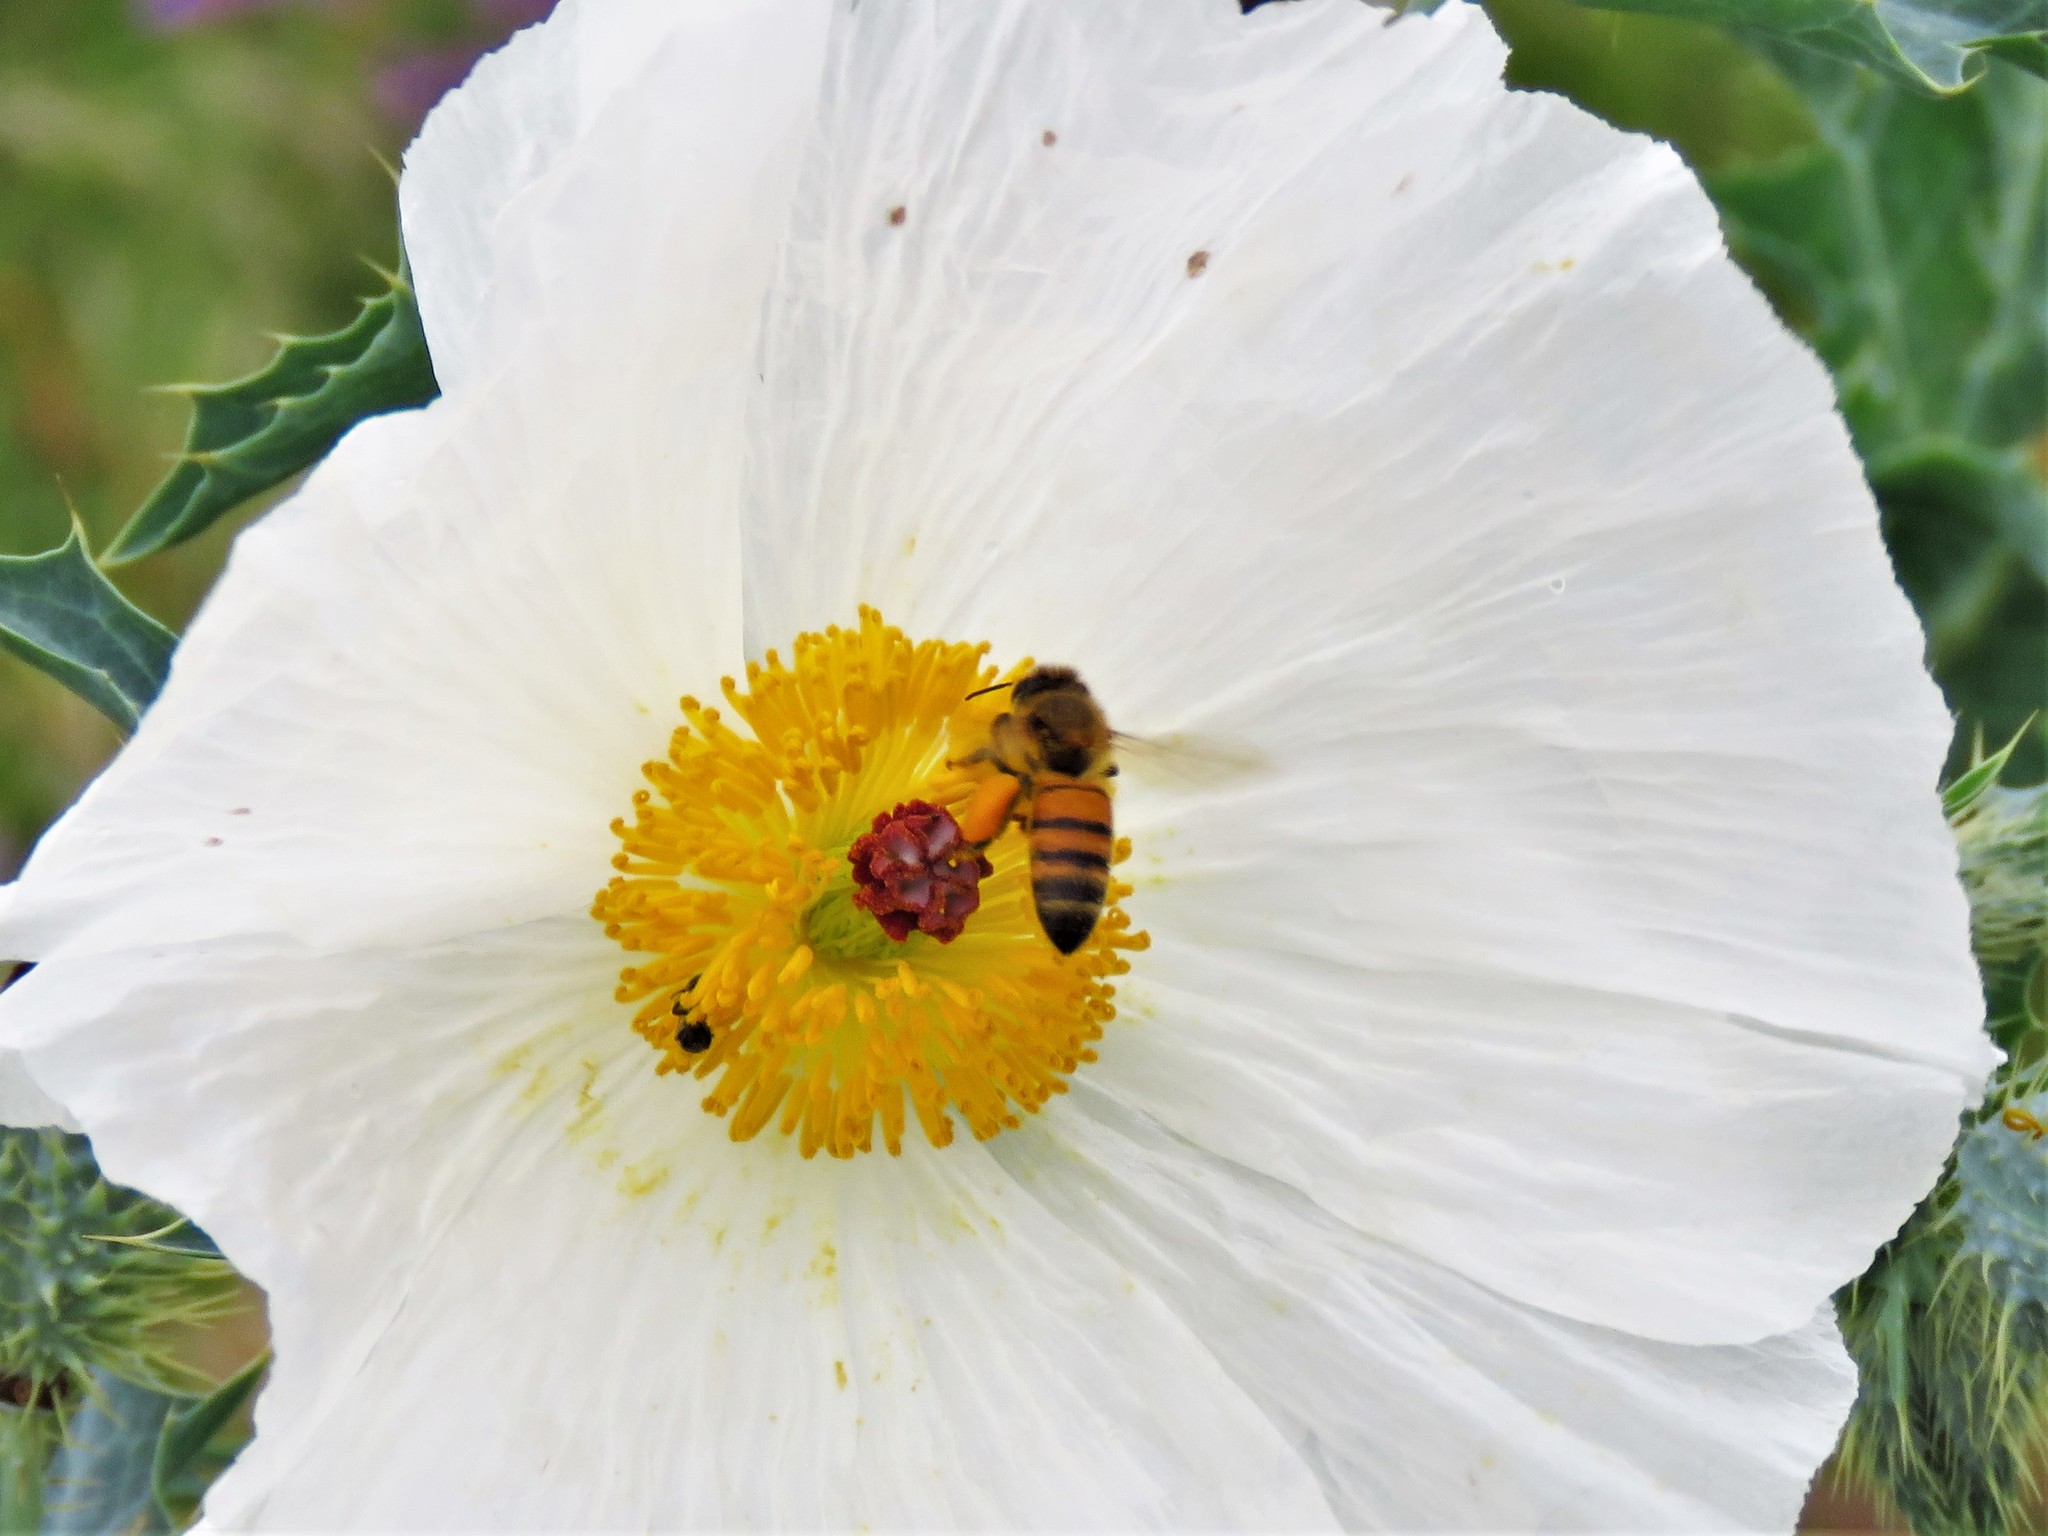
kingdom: Animalia
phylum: Arthropoda
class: Insecta
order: Hymenoptera
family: Apidae
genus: Apis
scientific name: Apis mellifera
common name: Honey bee
